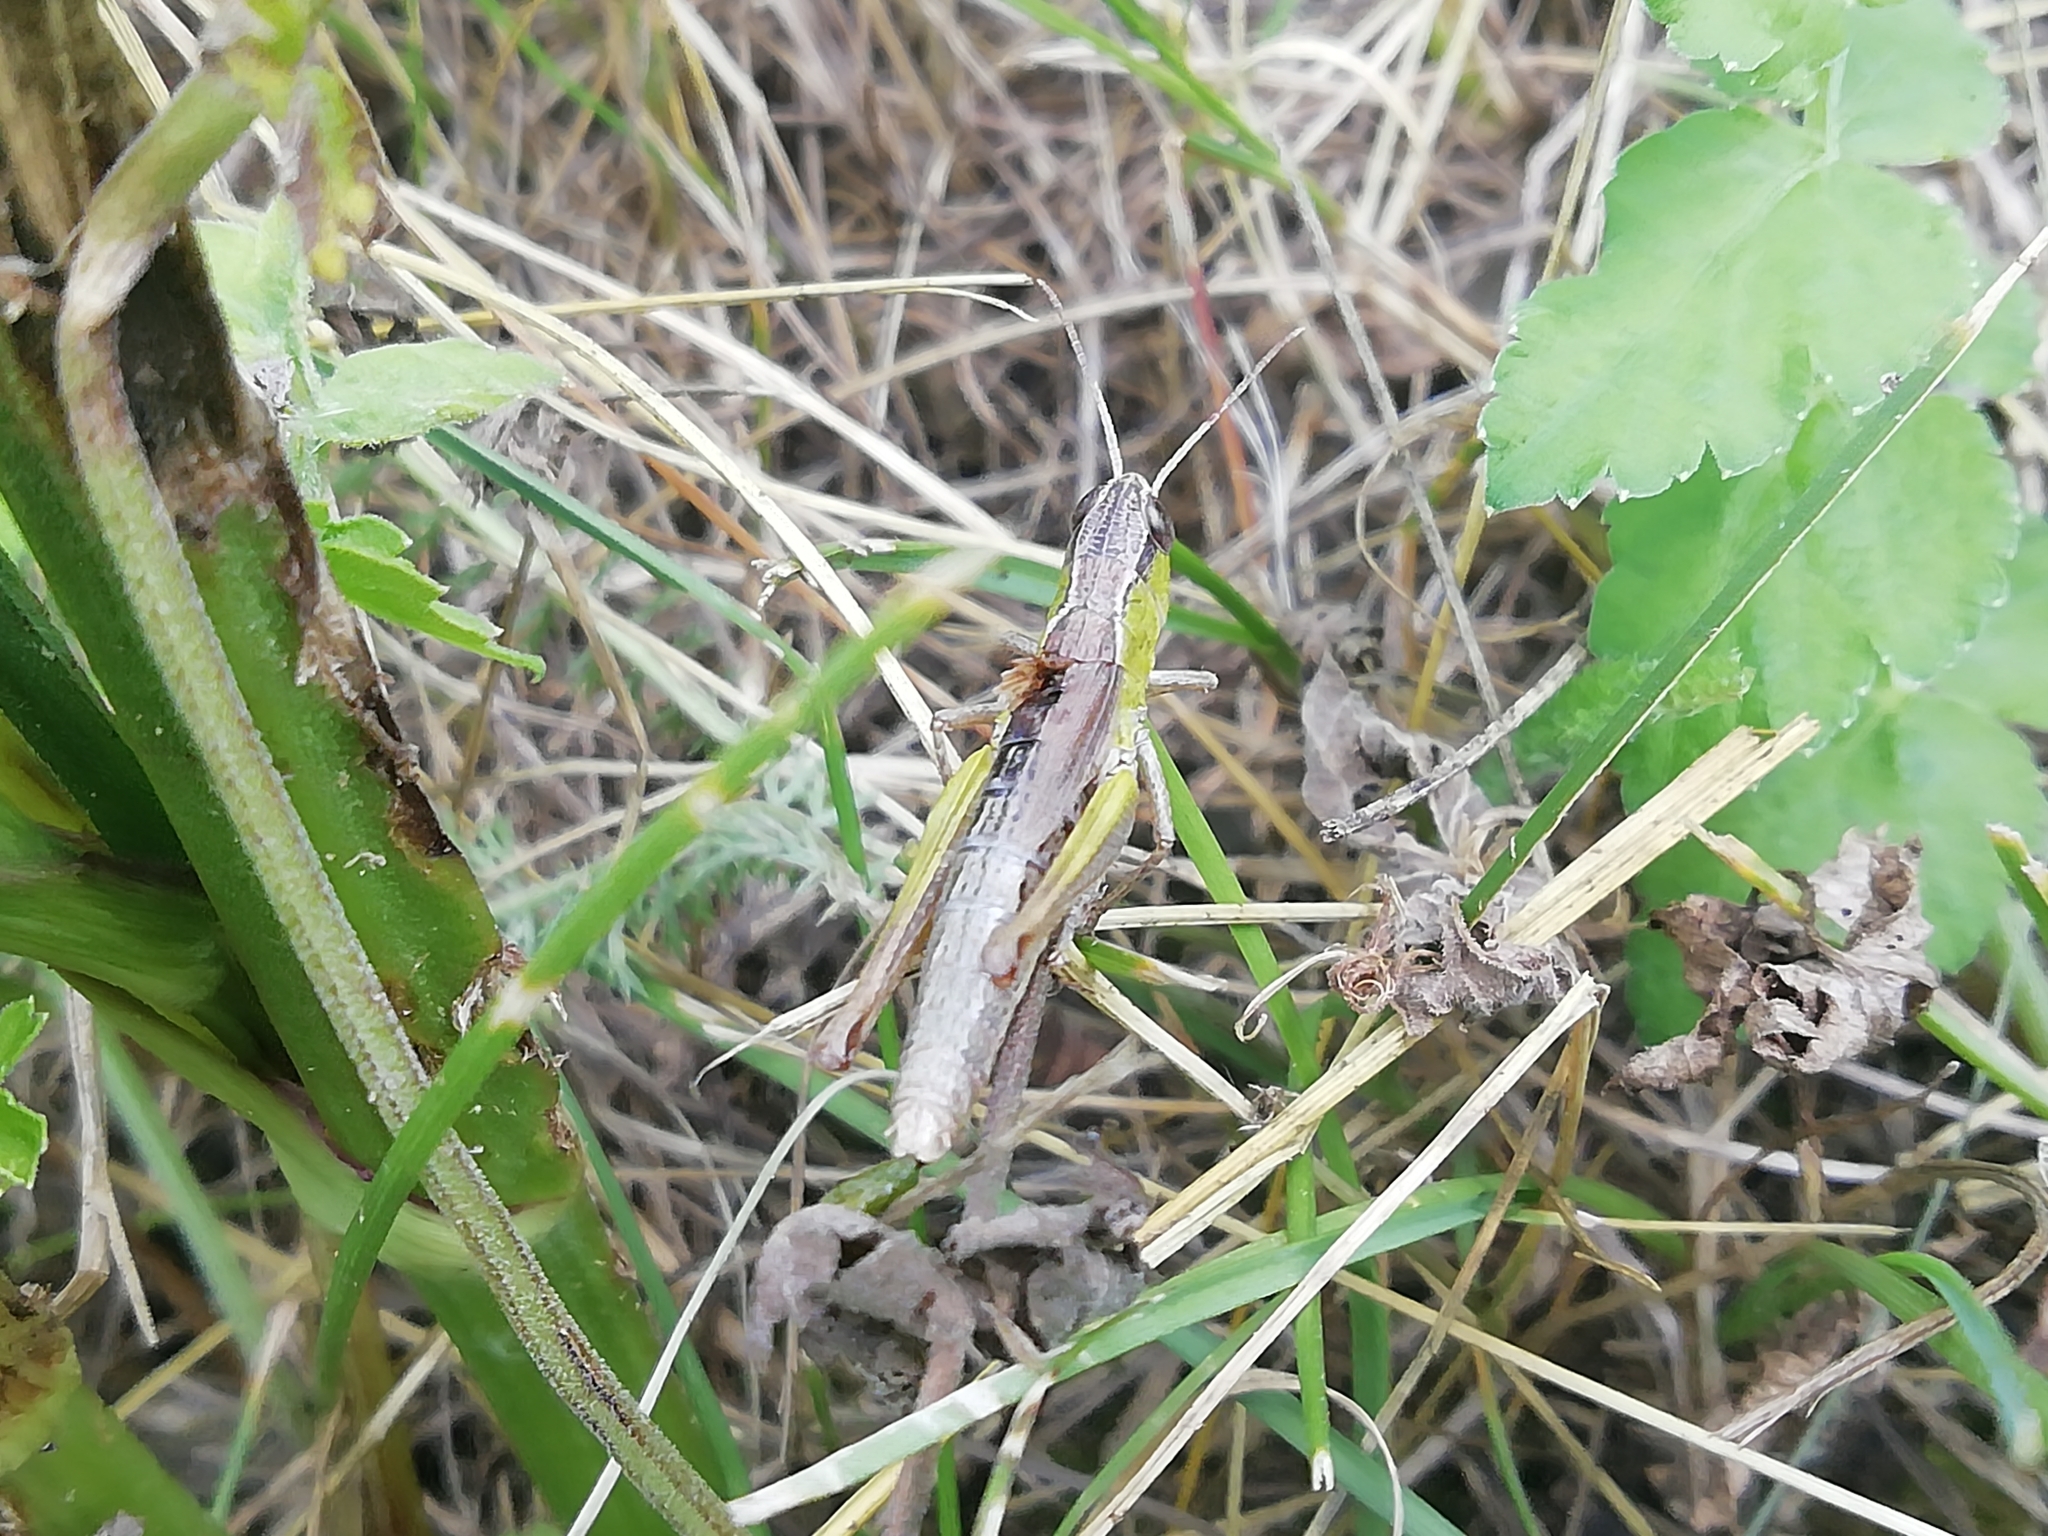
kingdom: Animalia
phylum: Arthropoda
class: Insecta
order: Orthoptera
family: Acrididae
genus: Pseudochorthippus
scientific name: Pseudochorthippus parallelus
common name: Meadow grasshopper
